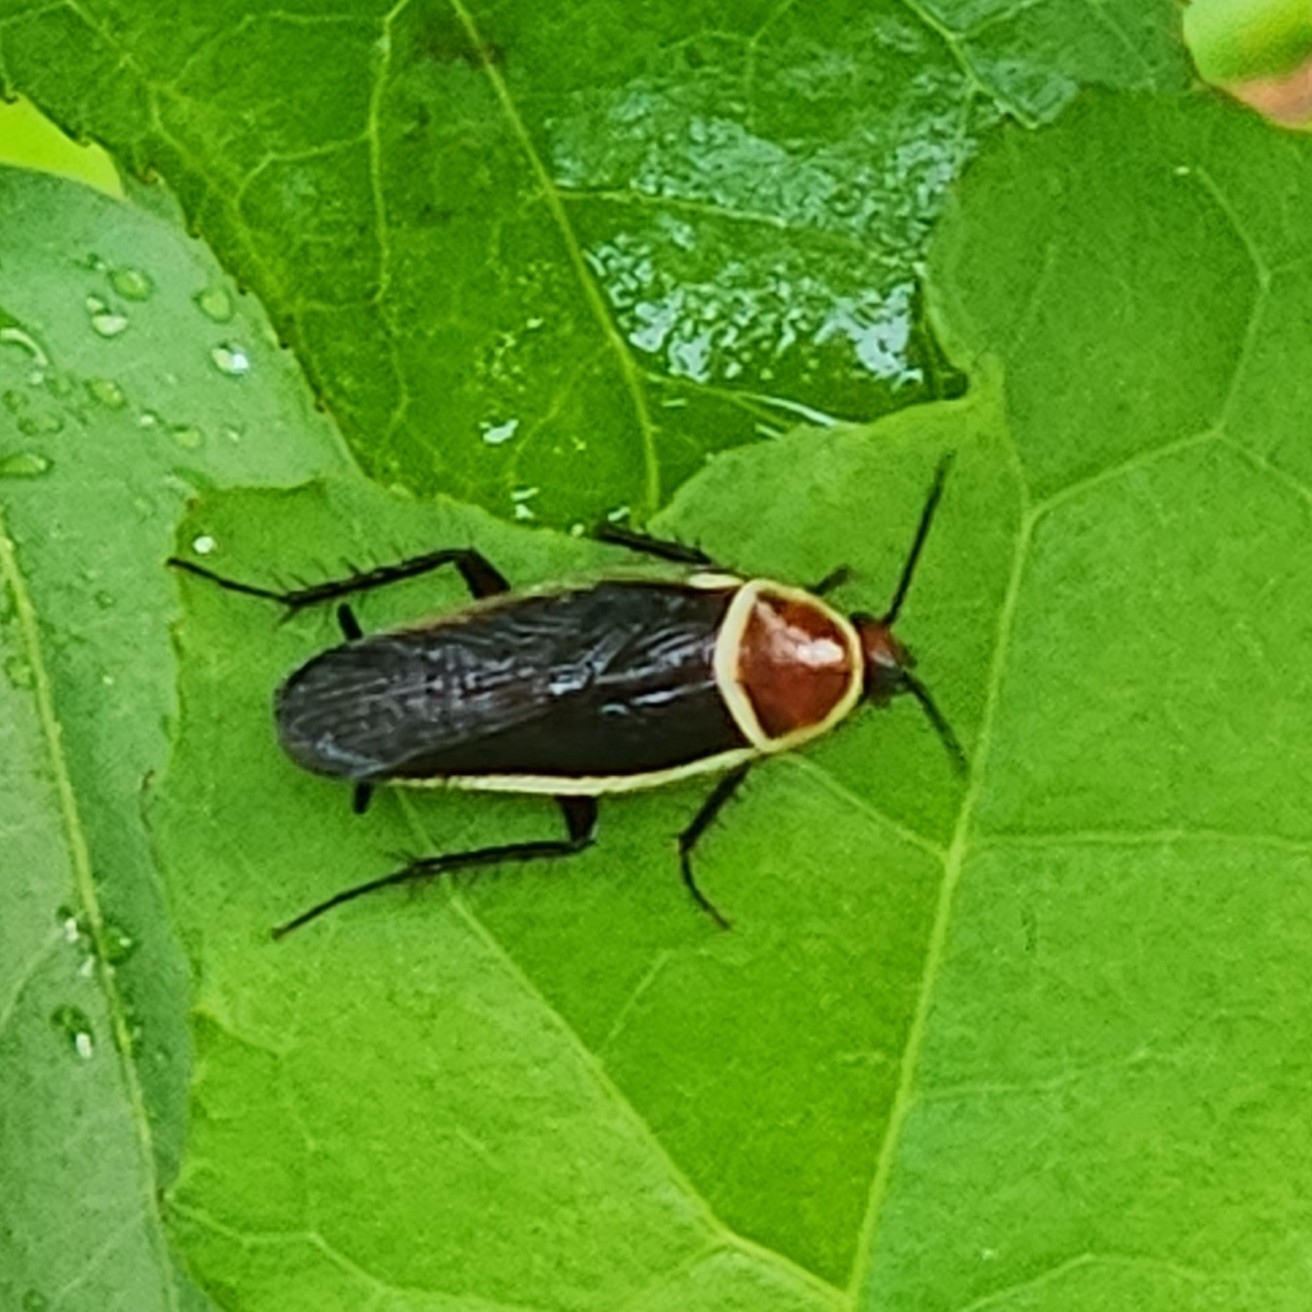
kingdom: Animalia
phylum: Arthropoda
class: Insecta
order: Blattodea
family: Ectobiidae
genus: Pseudomops
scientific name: Pseudomops septentrionalis
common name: Pale-bordered field cockroach
